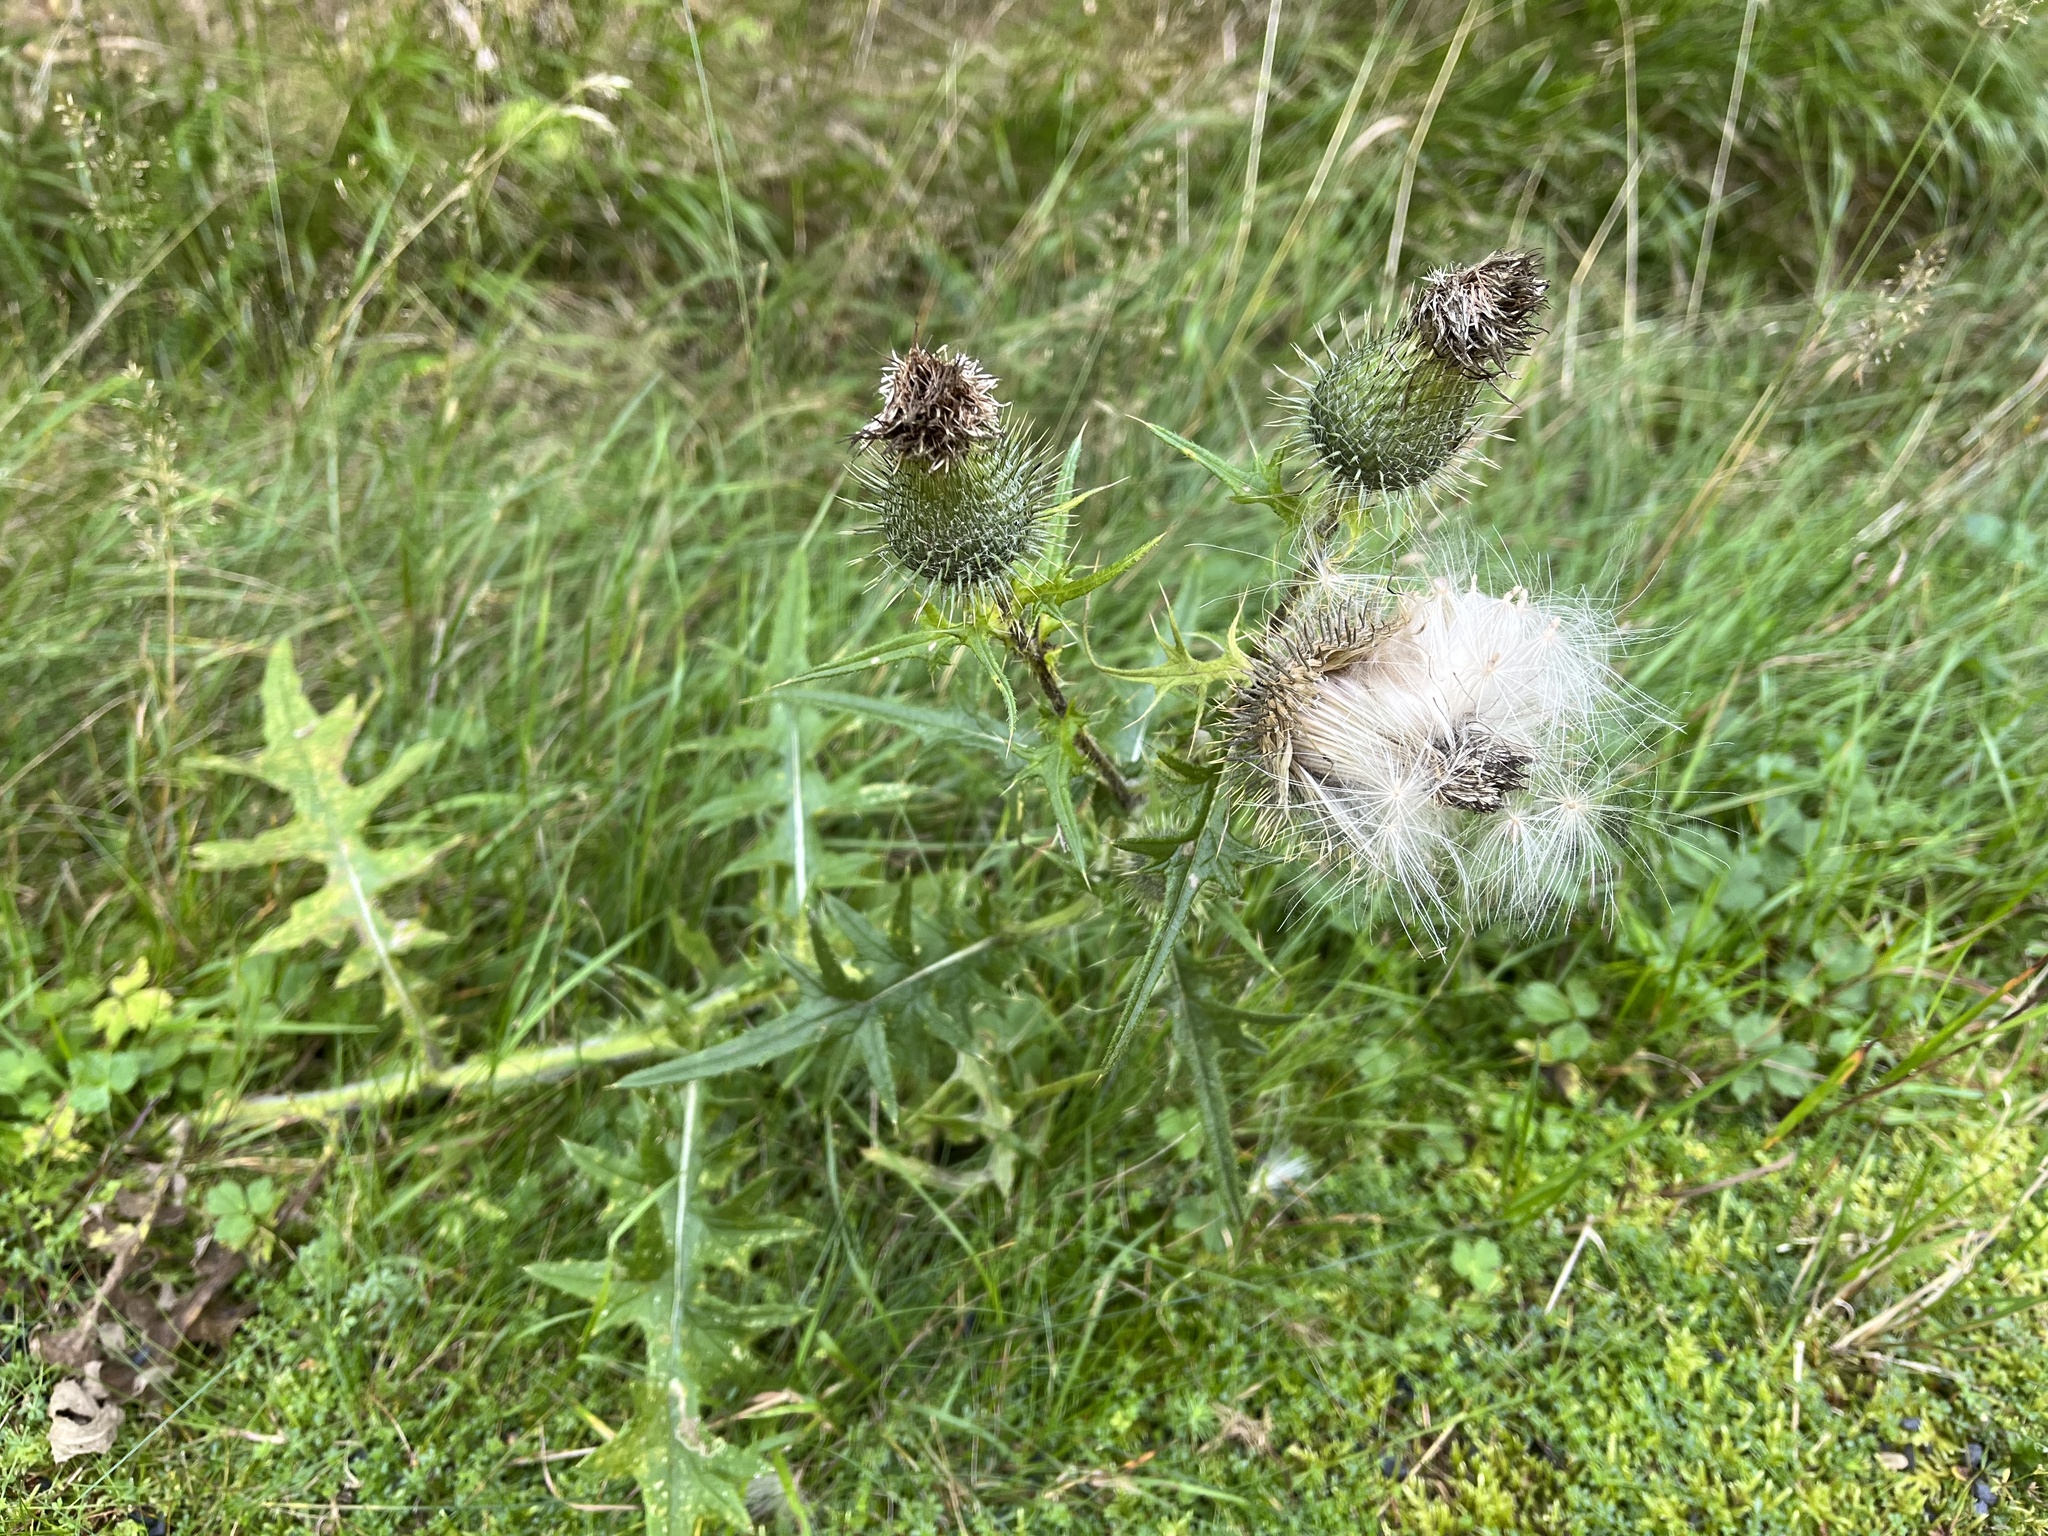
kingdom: Plantae
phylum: Tracheophyta
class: Magnoliopsida
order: Asterales
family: Asteraceae
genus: Cirsium
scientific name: Cirsium vulgare
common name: Bull thistle
